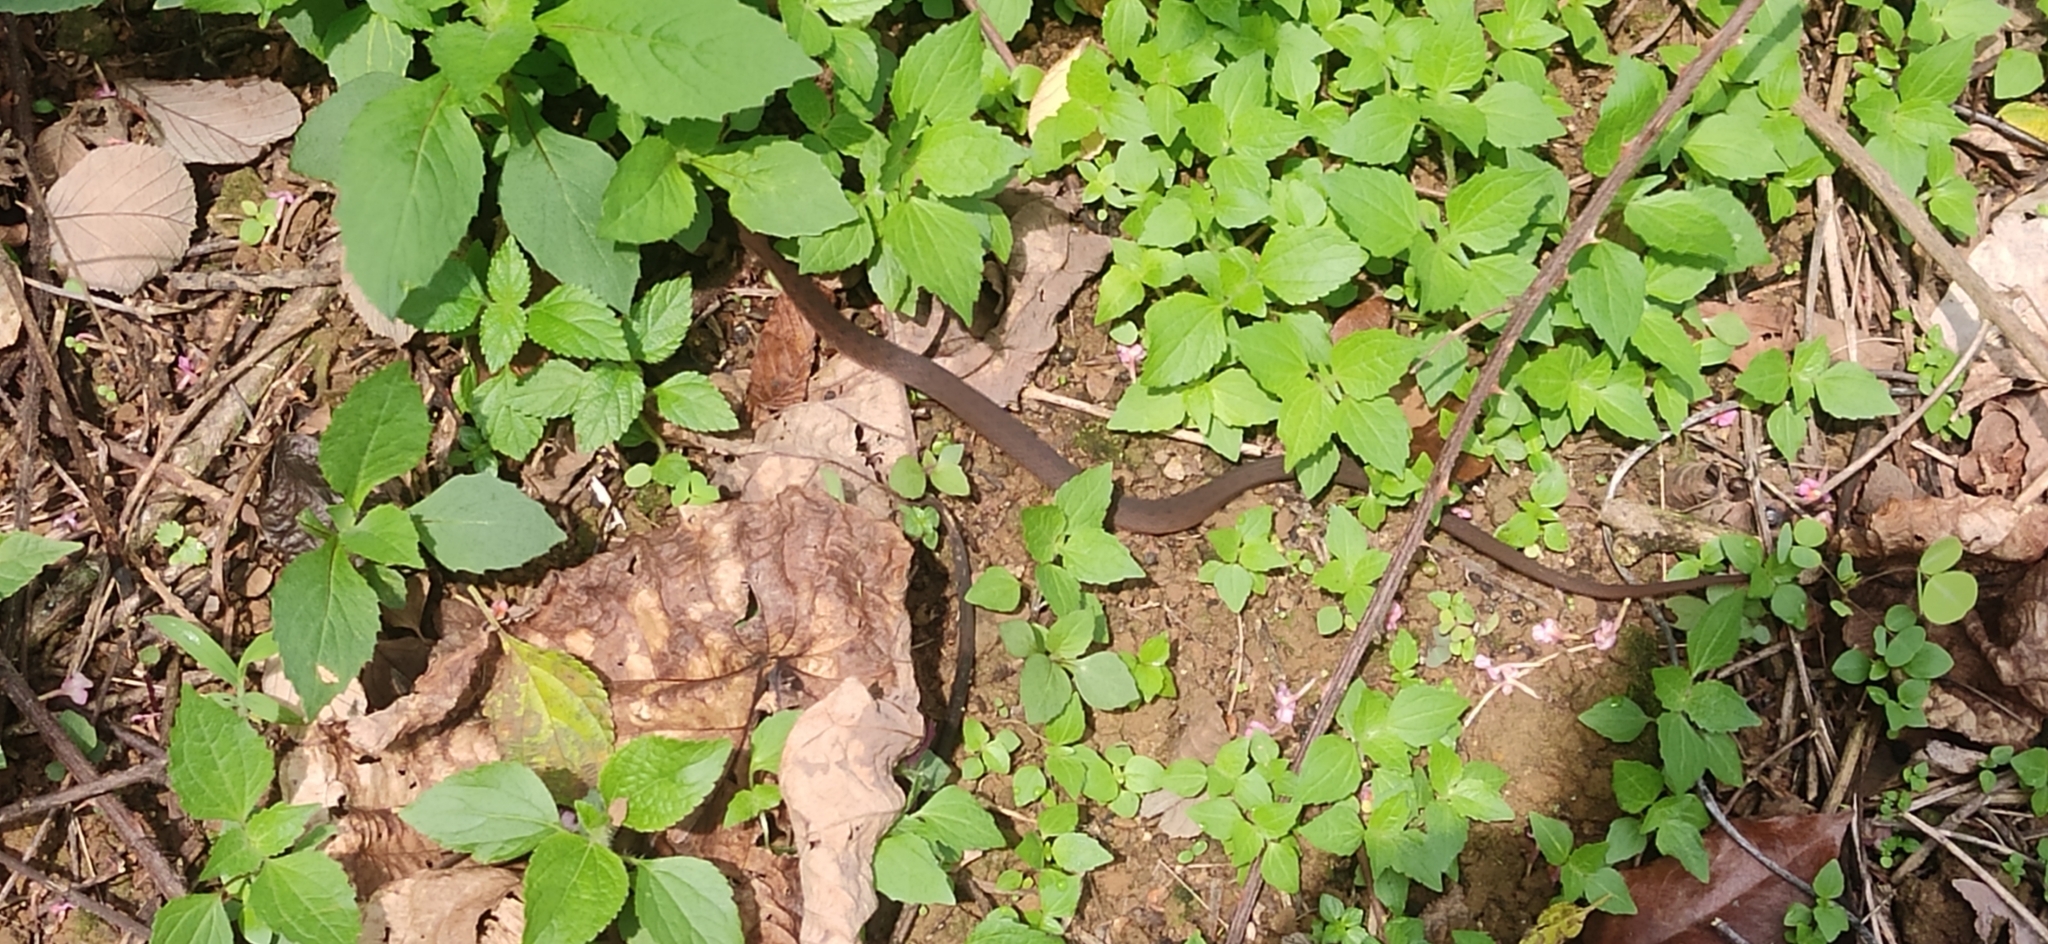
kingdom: Animalia
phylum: Chordata
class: Squamata
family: Colubridae
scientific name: Colubridae
